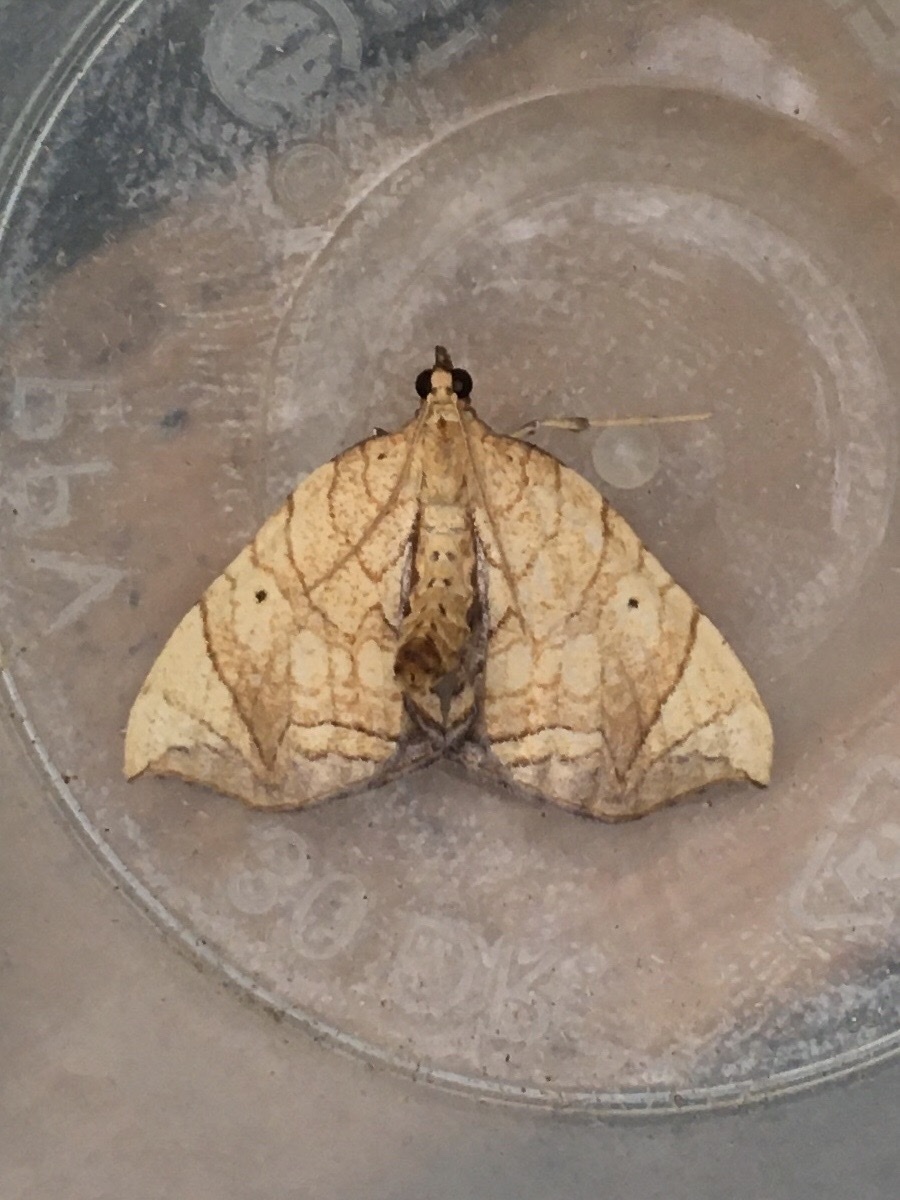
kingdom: Animalia
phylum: Arthropoda
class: Insecta
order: Lepidoptera
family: Geometridae
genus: Eulithis
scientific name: Eulithis
